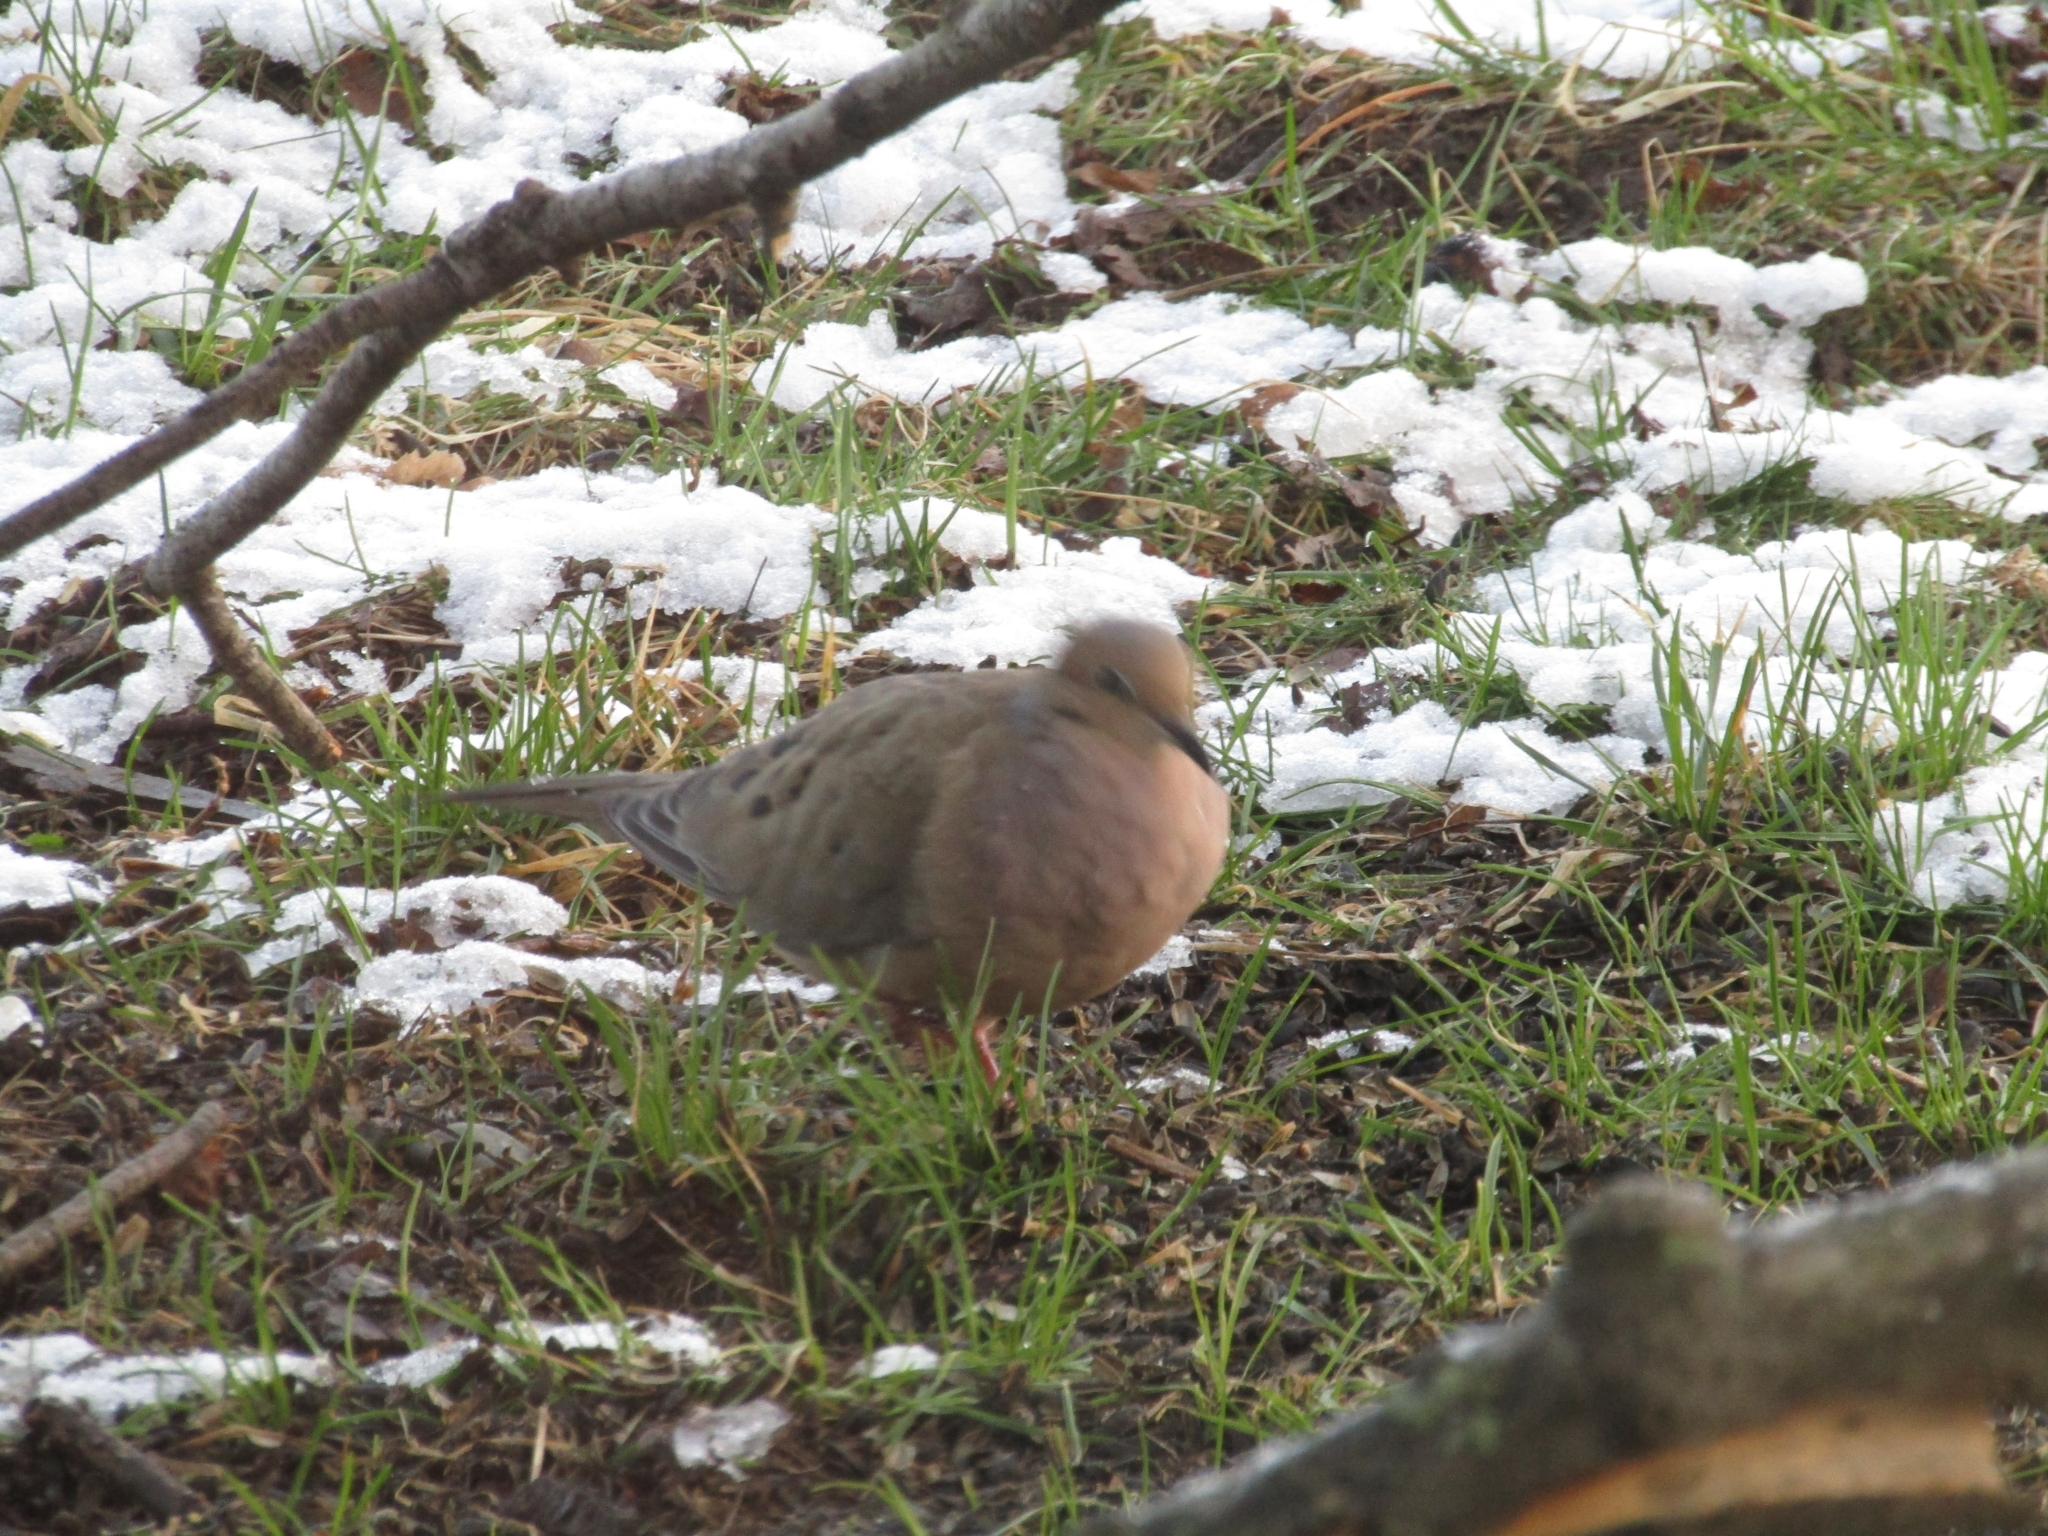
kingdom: Animalia
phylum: Chordata
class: Aves
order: Columbiformes
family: Columbidae
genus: Zenaida
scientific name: Zenaida macroura
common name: Mourning dove
